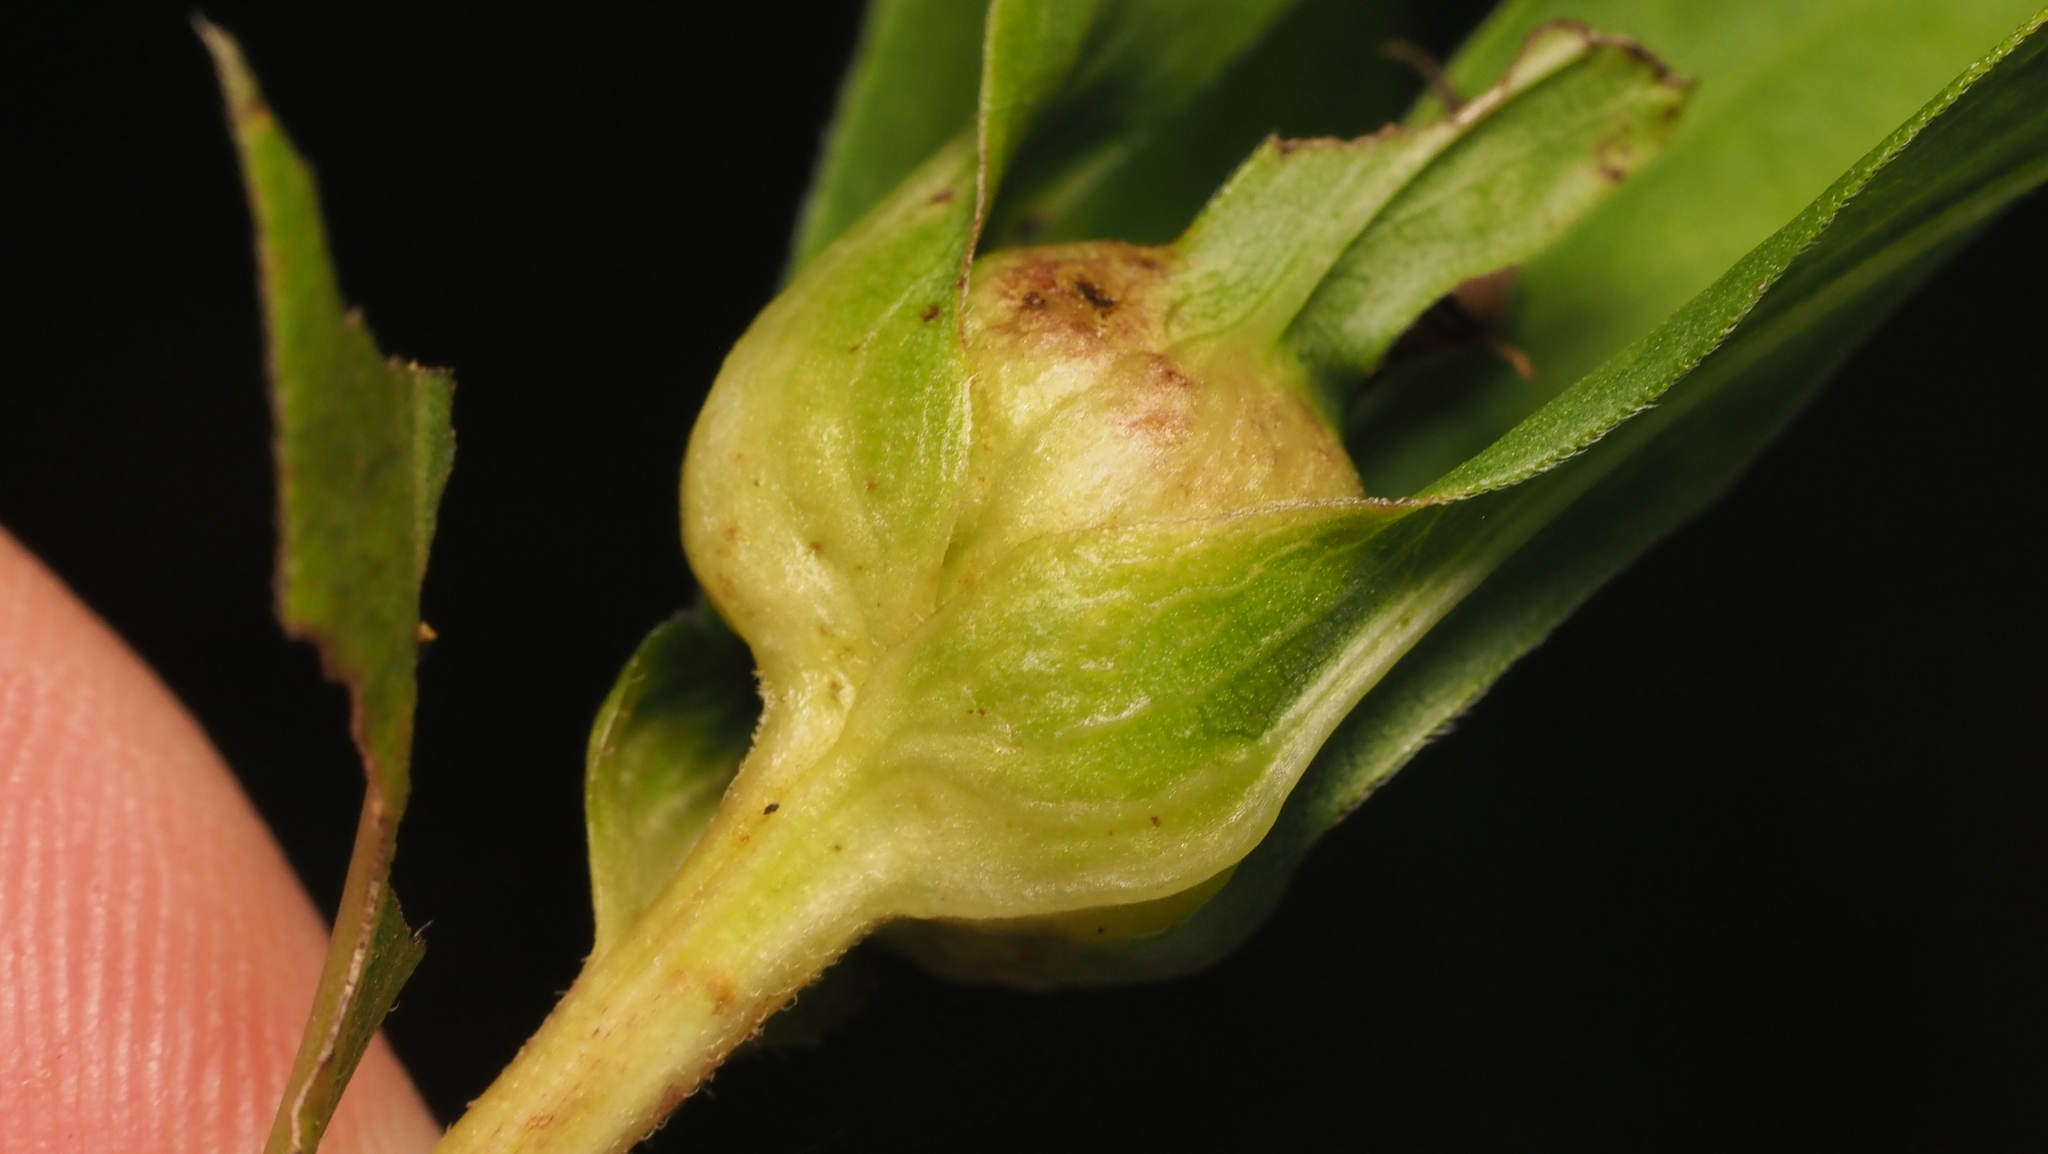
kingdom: Animalia
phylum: Arthropoda
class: Insecta
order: Diptera
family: Cecidomyiidae
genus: Dasineura
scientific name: Dasineura folliculi
